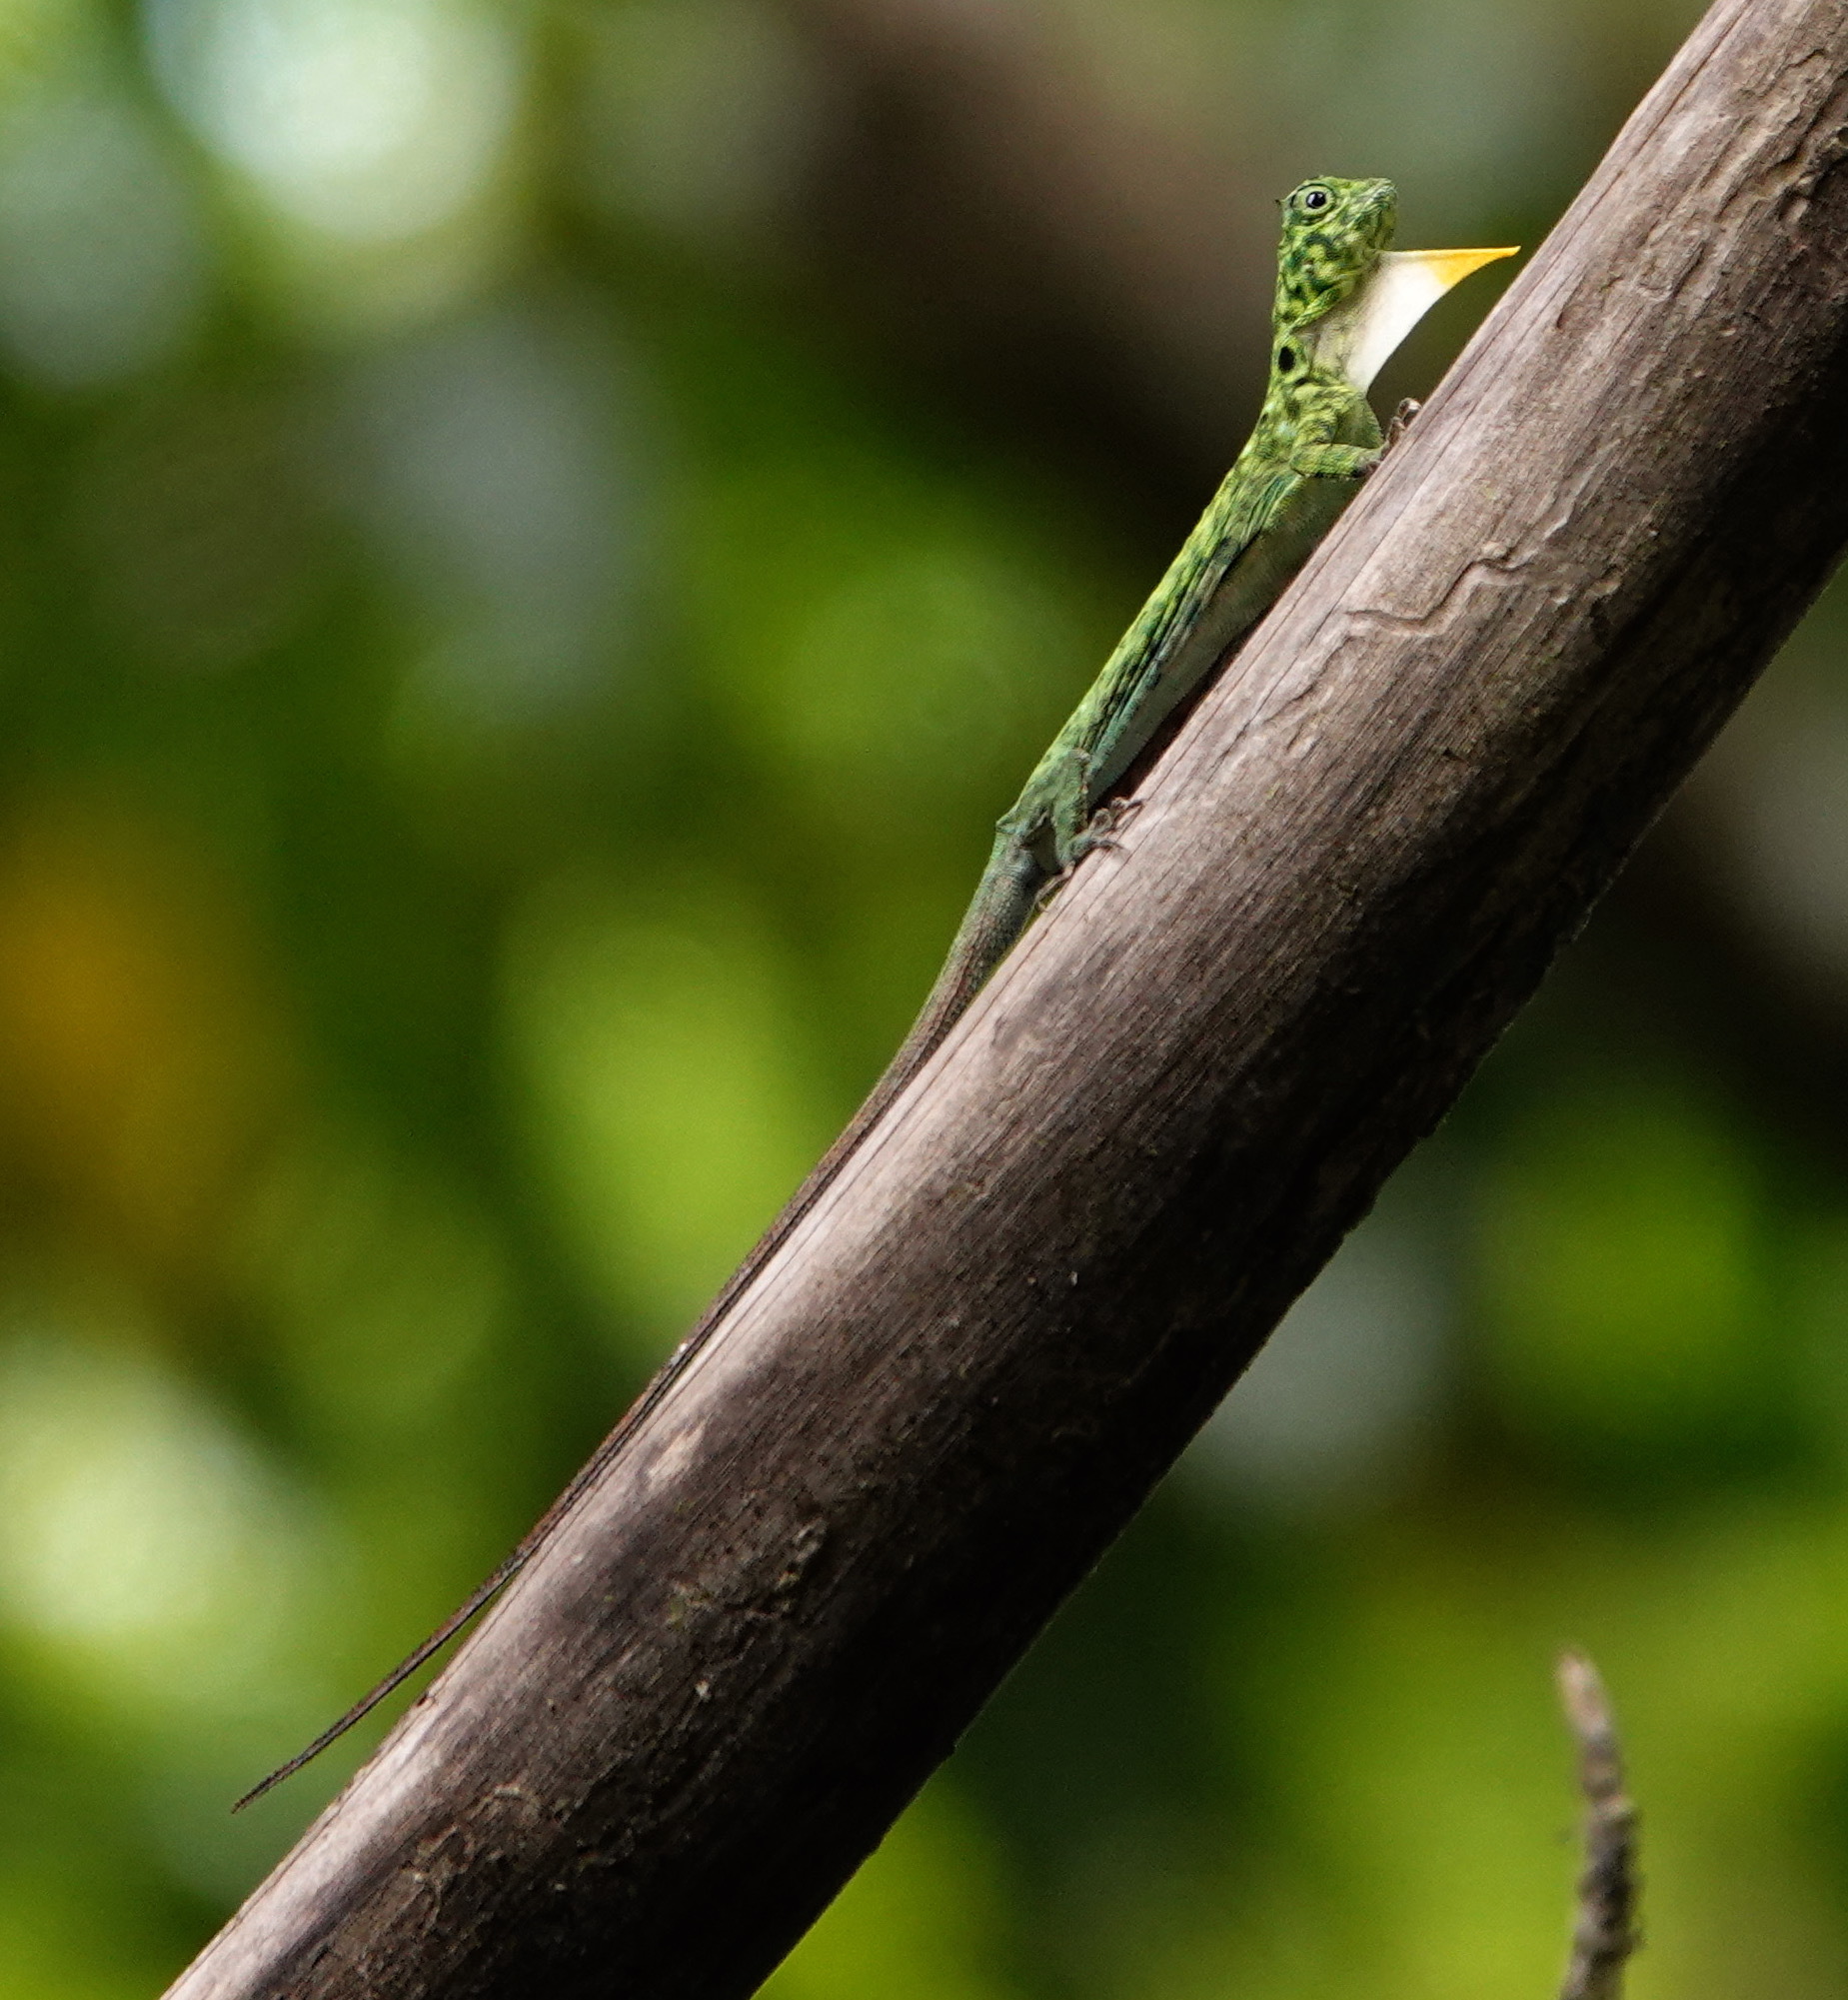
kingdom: Animalia
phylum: Chordata
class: Squamata
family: Agamidae
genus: Draco
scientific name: Draco cornutus
